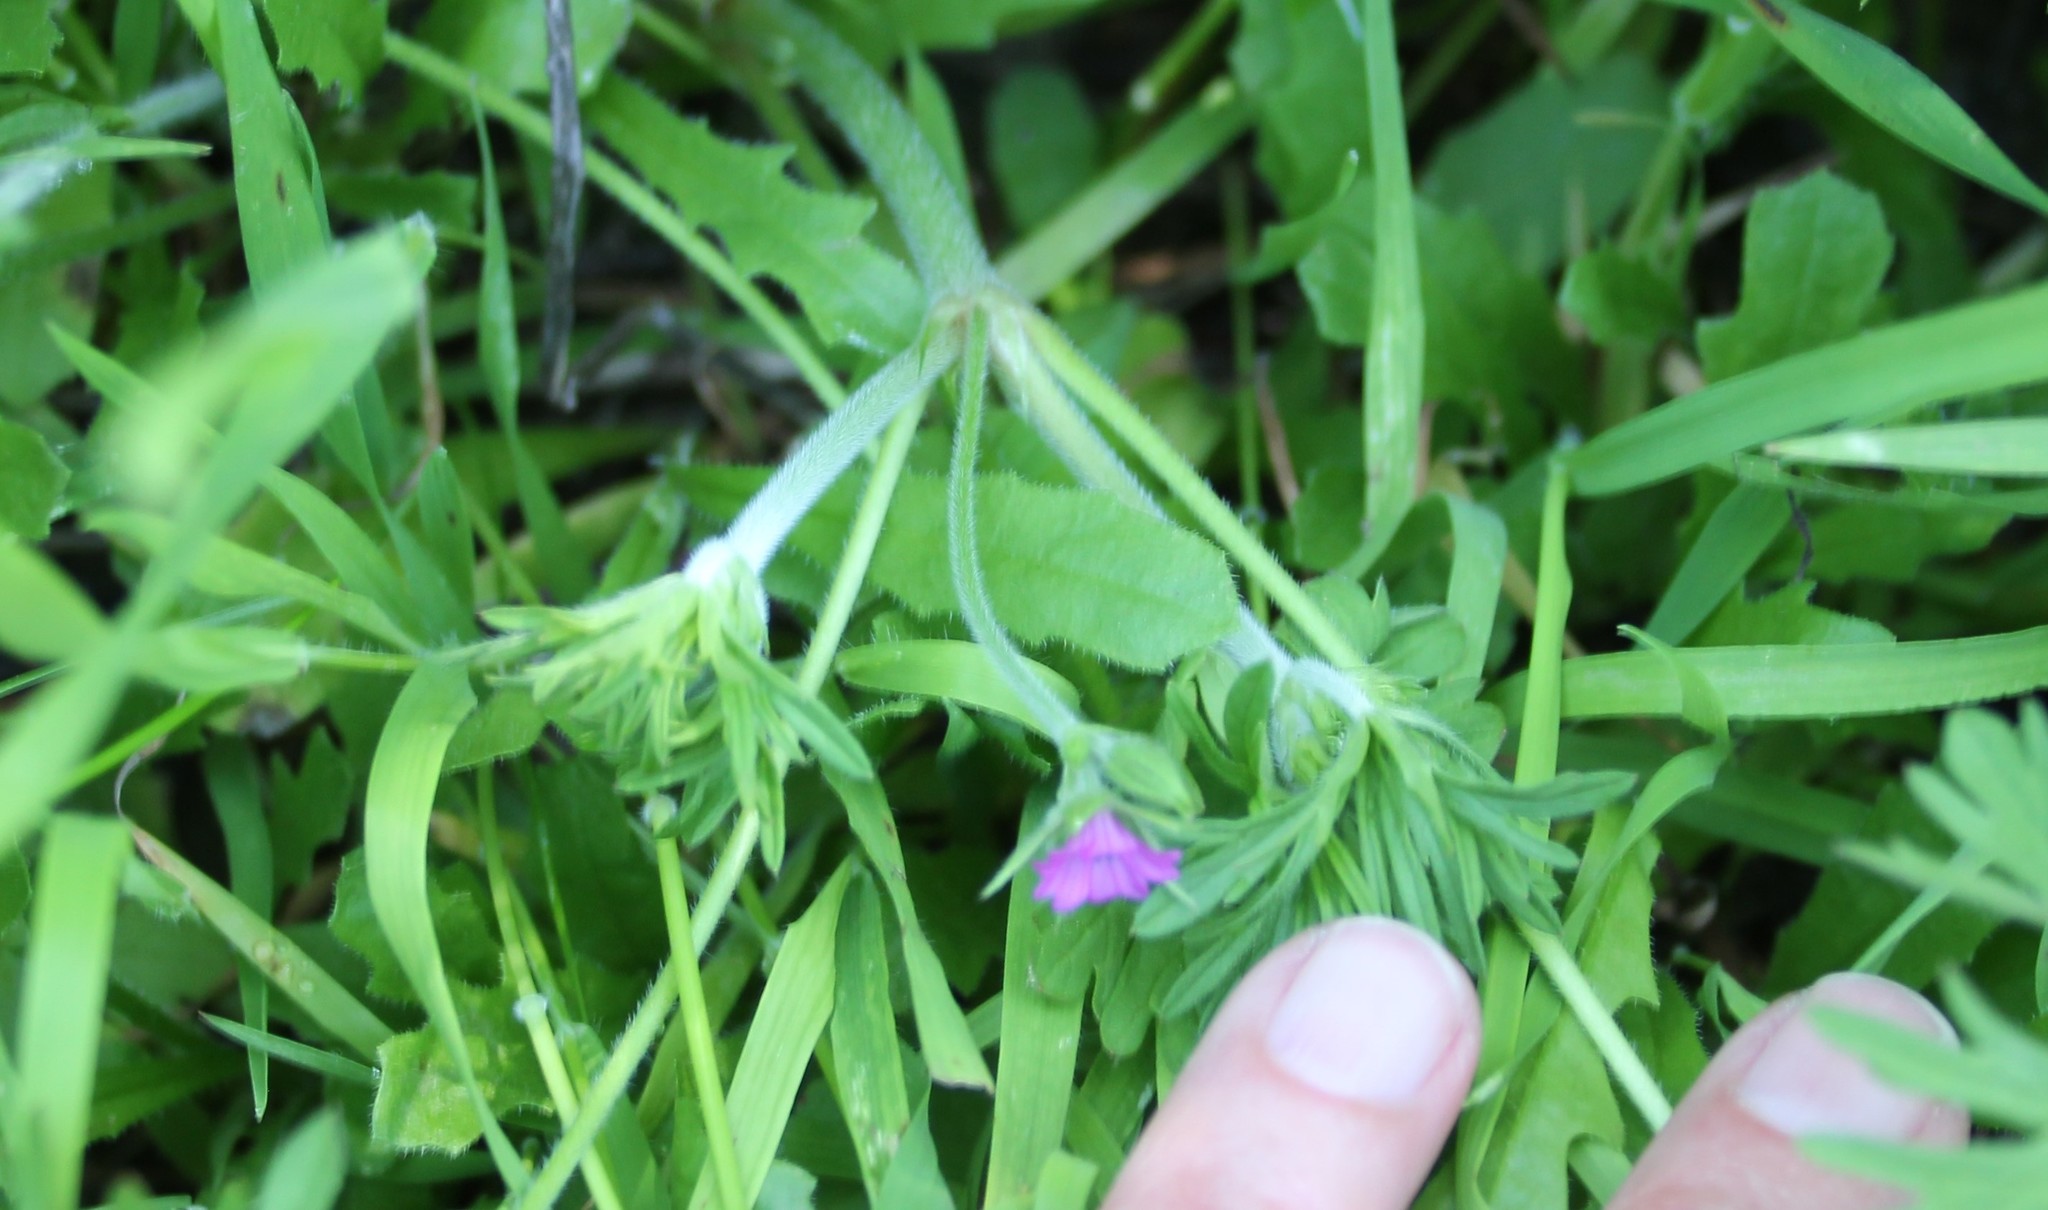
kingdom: Plantae
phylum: Tracheophyta
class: Magnoliopsida
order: Geraniales
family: Geraniaceae
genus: Geranium
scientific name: Geranium dissectum
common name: Cut-leaved crane's-bill
